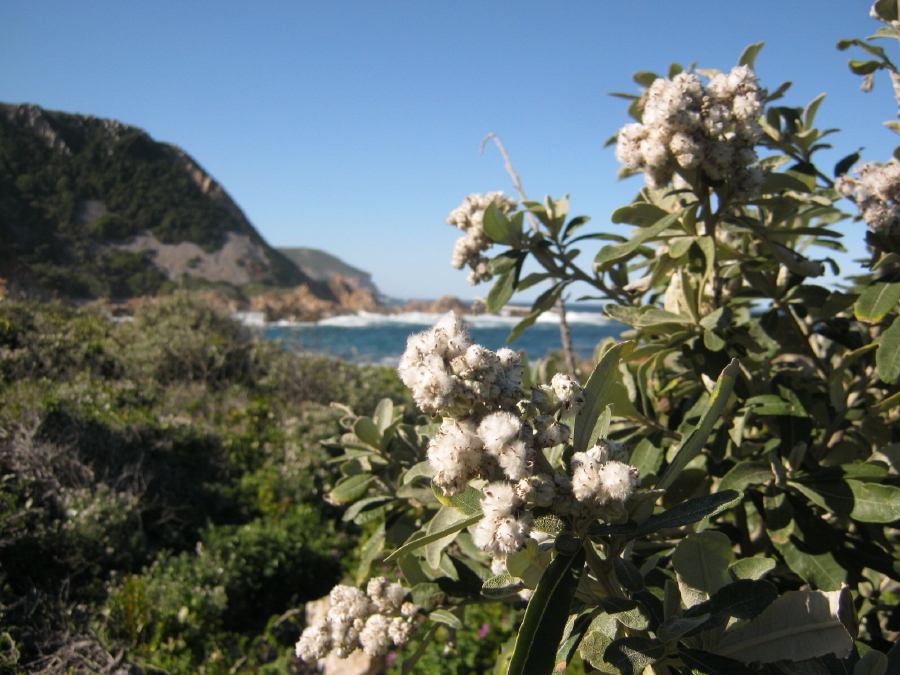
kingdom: Plantae
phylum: Tracheophyta
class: Magnoliopsida
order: Asterales
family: Asteraceae
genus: Tarchonanthus
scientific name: Tarchonanthus littoralis
